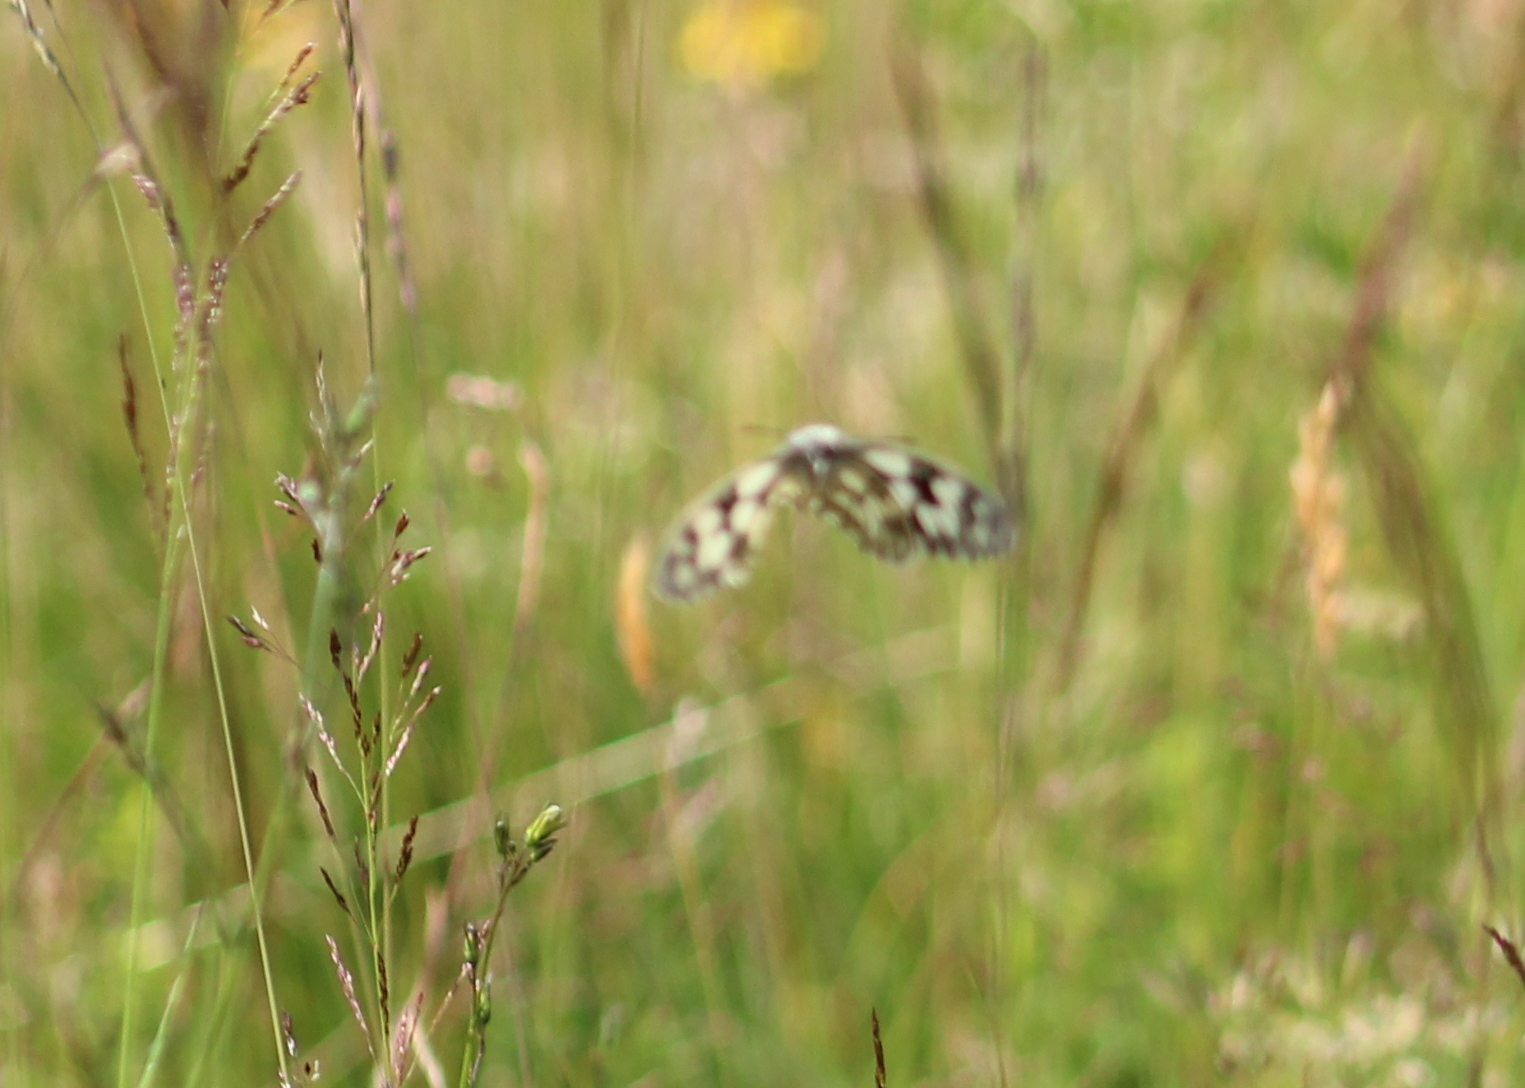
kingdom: Animalia
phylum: Arthropoda
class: Insecta
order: Lepidoptera
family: Nymphalidae
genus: Melanargia
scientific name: Melanargia galathea
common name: Marbled white
